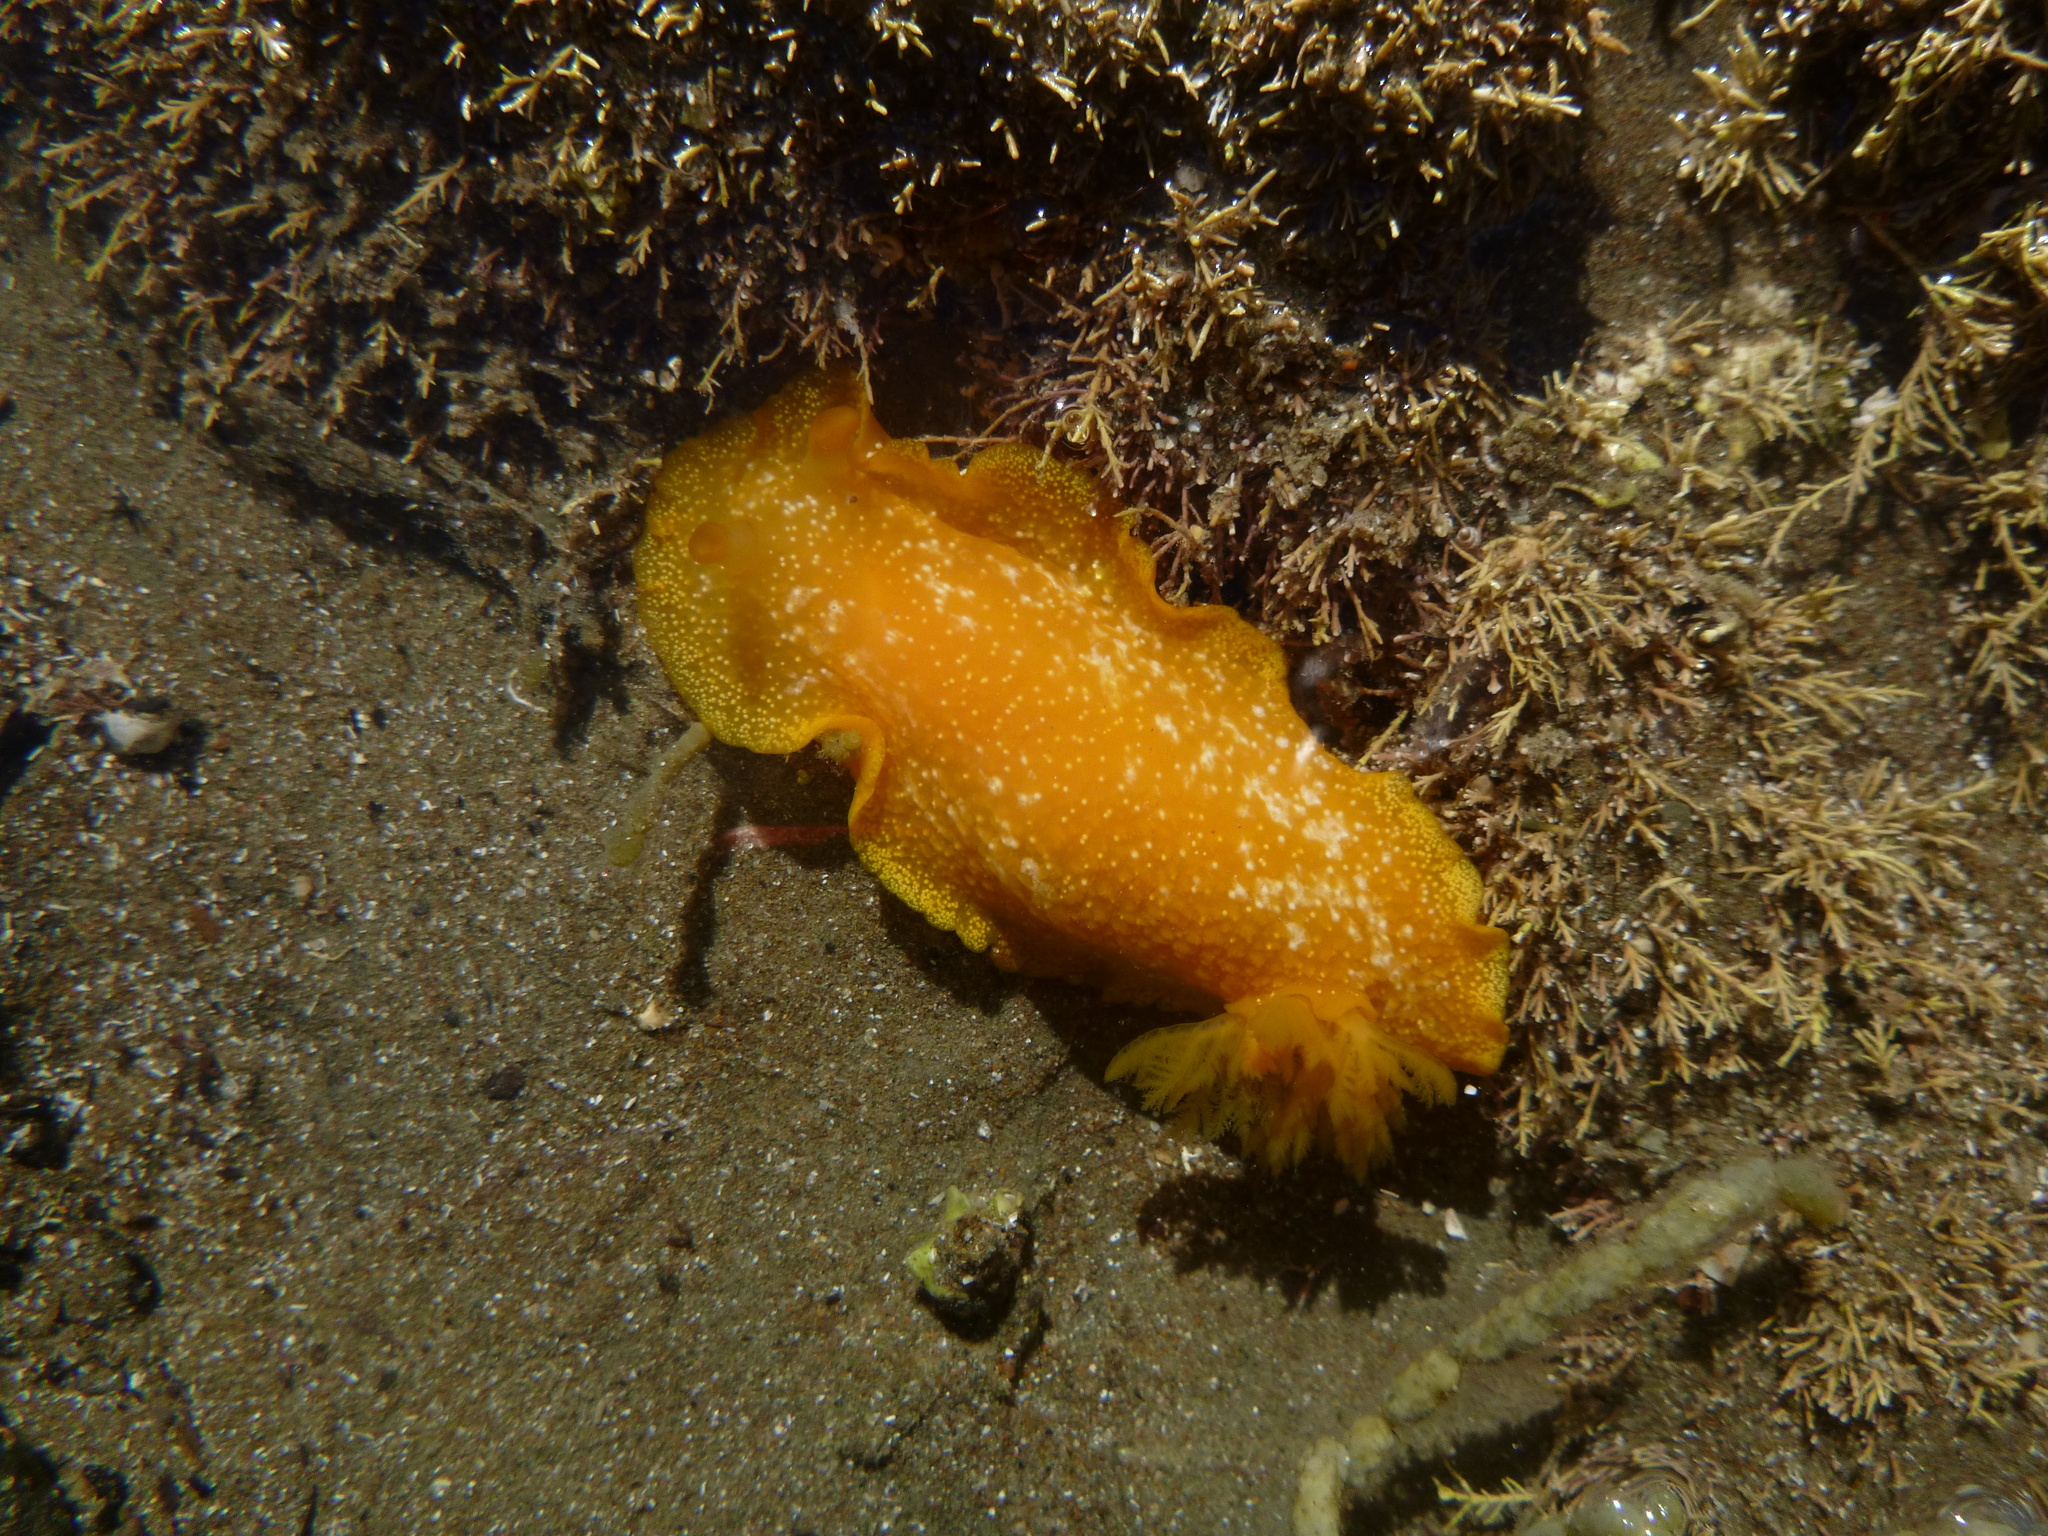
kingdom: Animalia
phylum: Mollusca
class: Gastropoda
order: Nudibranchia
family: Dendrodorididae
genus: Dendrodoris
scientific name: Dendrodoris citrina
